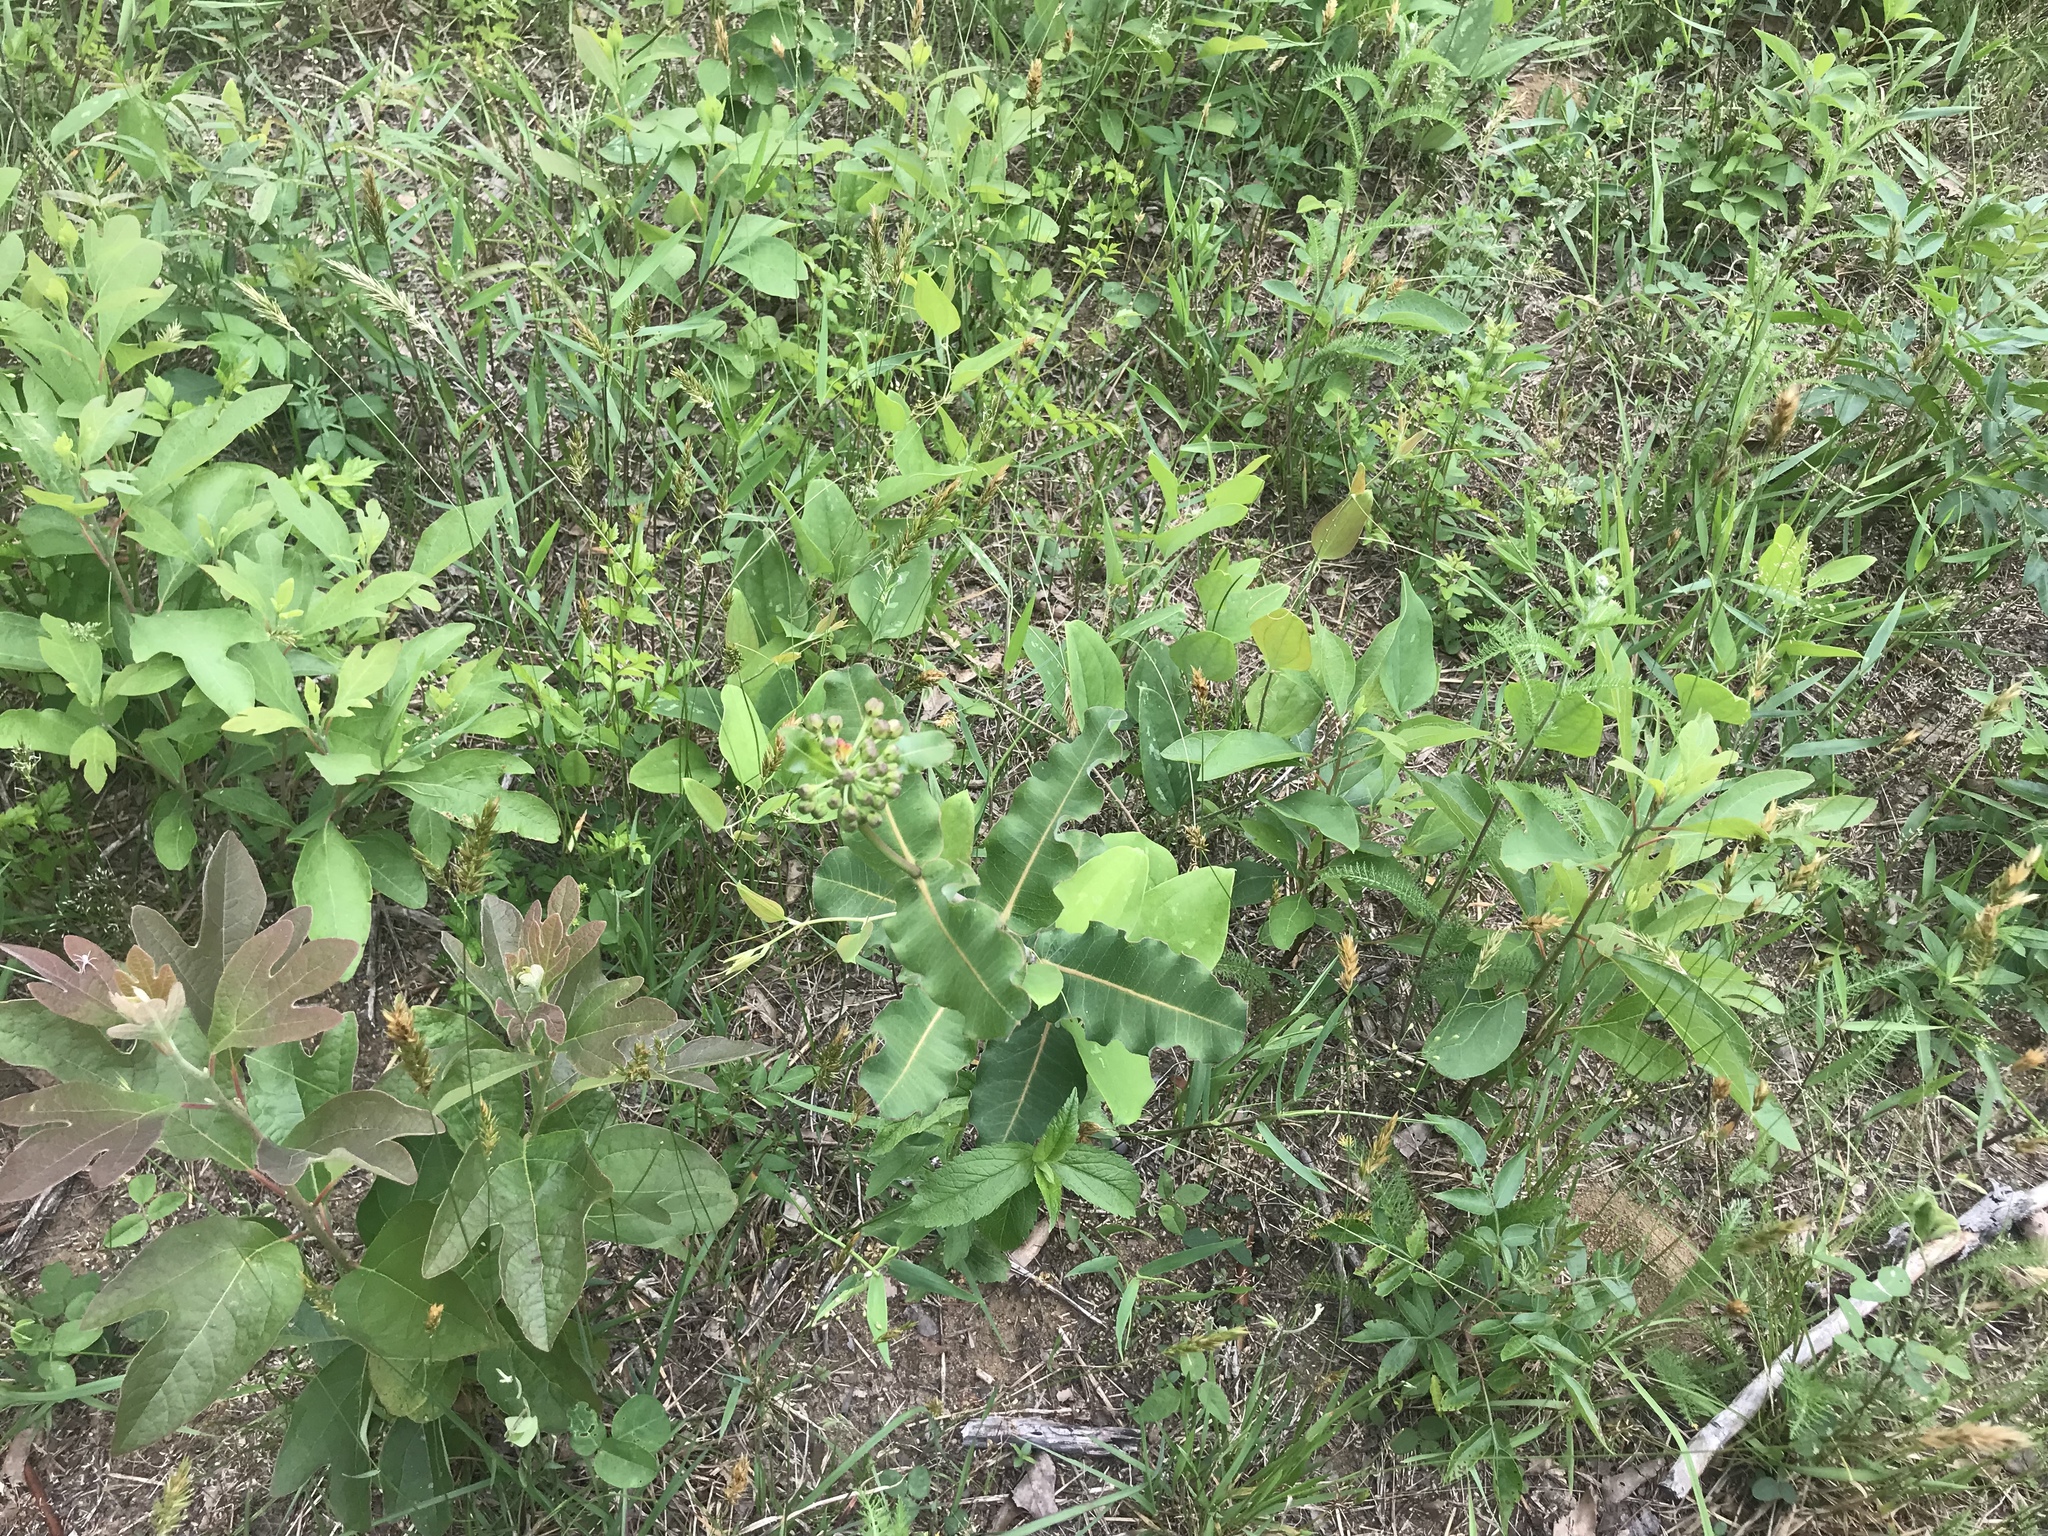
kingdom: Plantae
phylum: Tracheophyta
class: Magnoliopsida
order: Gentianales
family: Apocynaceae
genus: Asclepias
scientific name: Asclepias amplexicaulis
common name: Blunt-leaf milkweed
